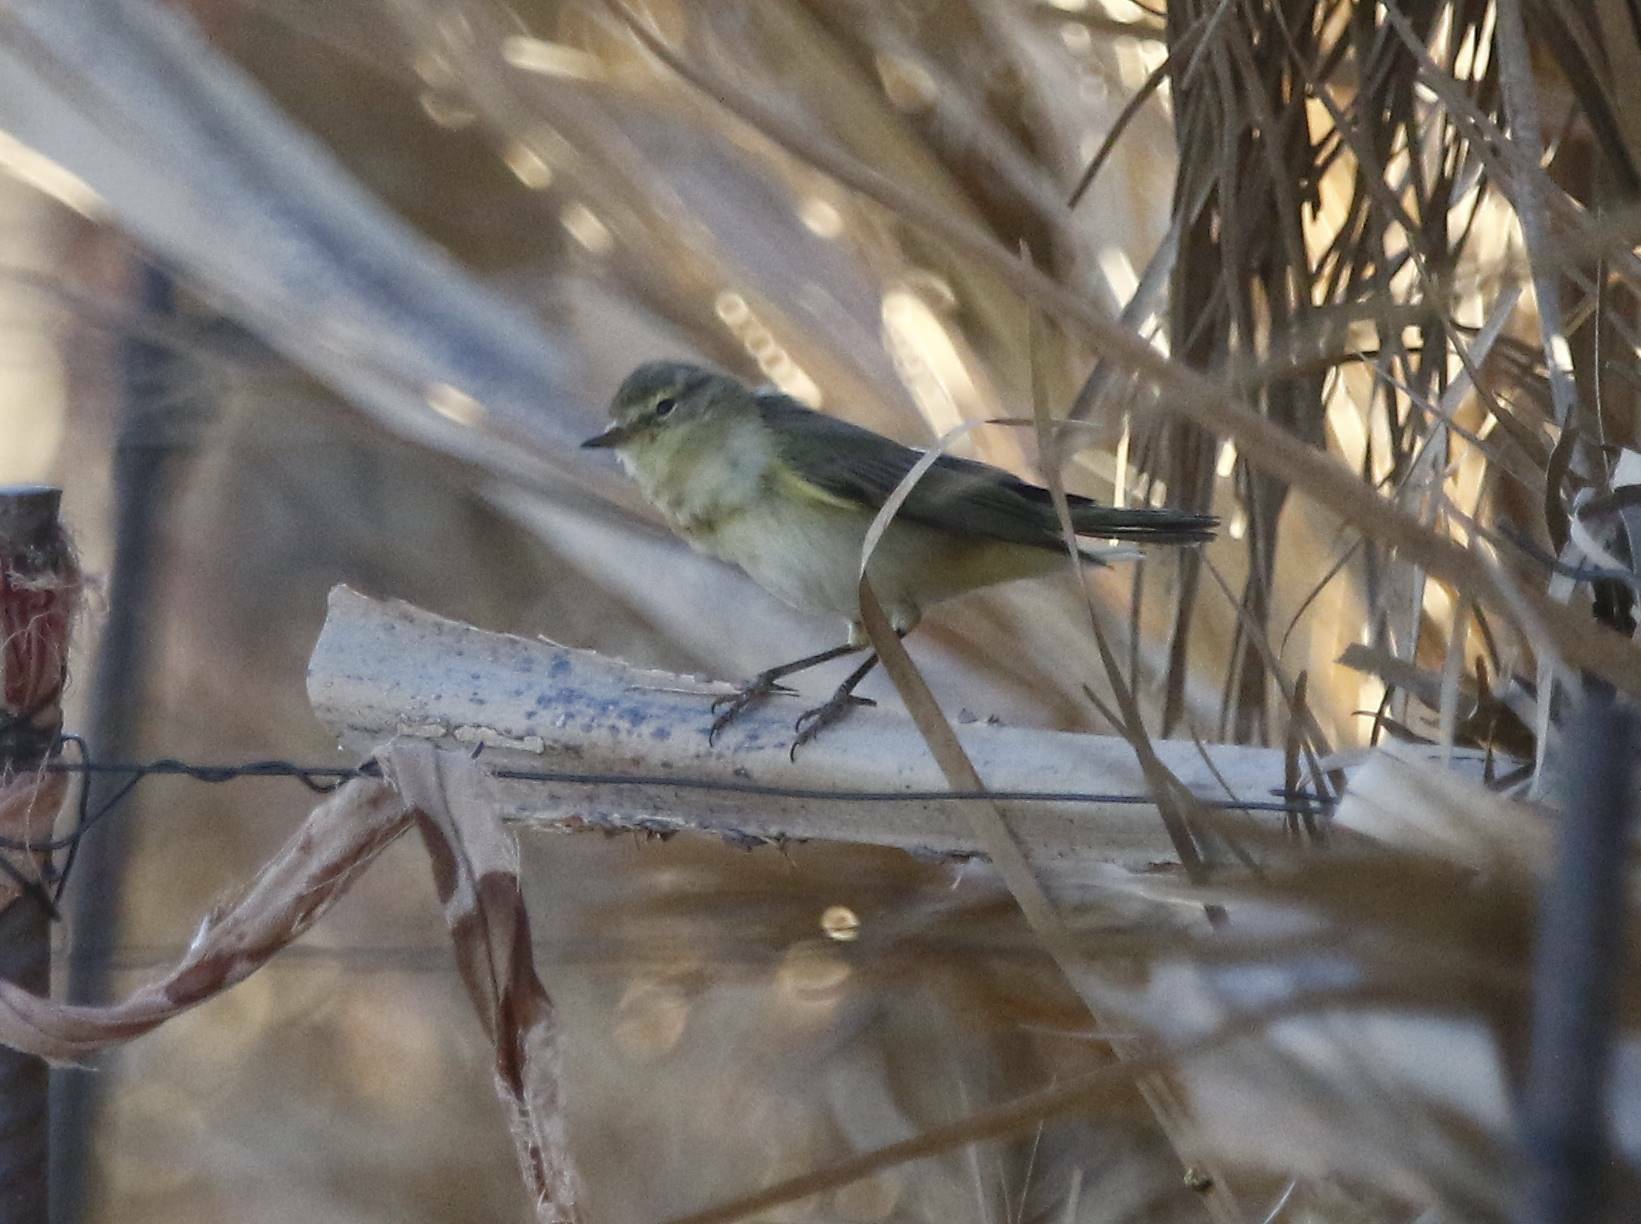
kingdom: Animalia
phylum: Chordata
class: Aves
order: Passeriformes
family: Phylloscopidae
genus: Phylloscopus
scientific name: Phylloscopus collybita
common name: Common chiffchaff
